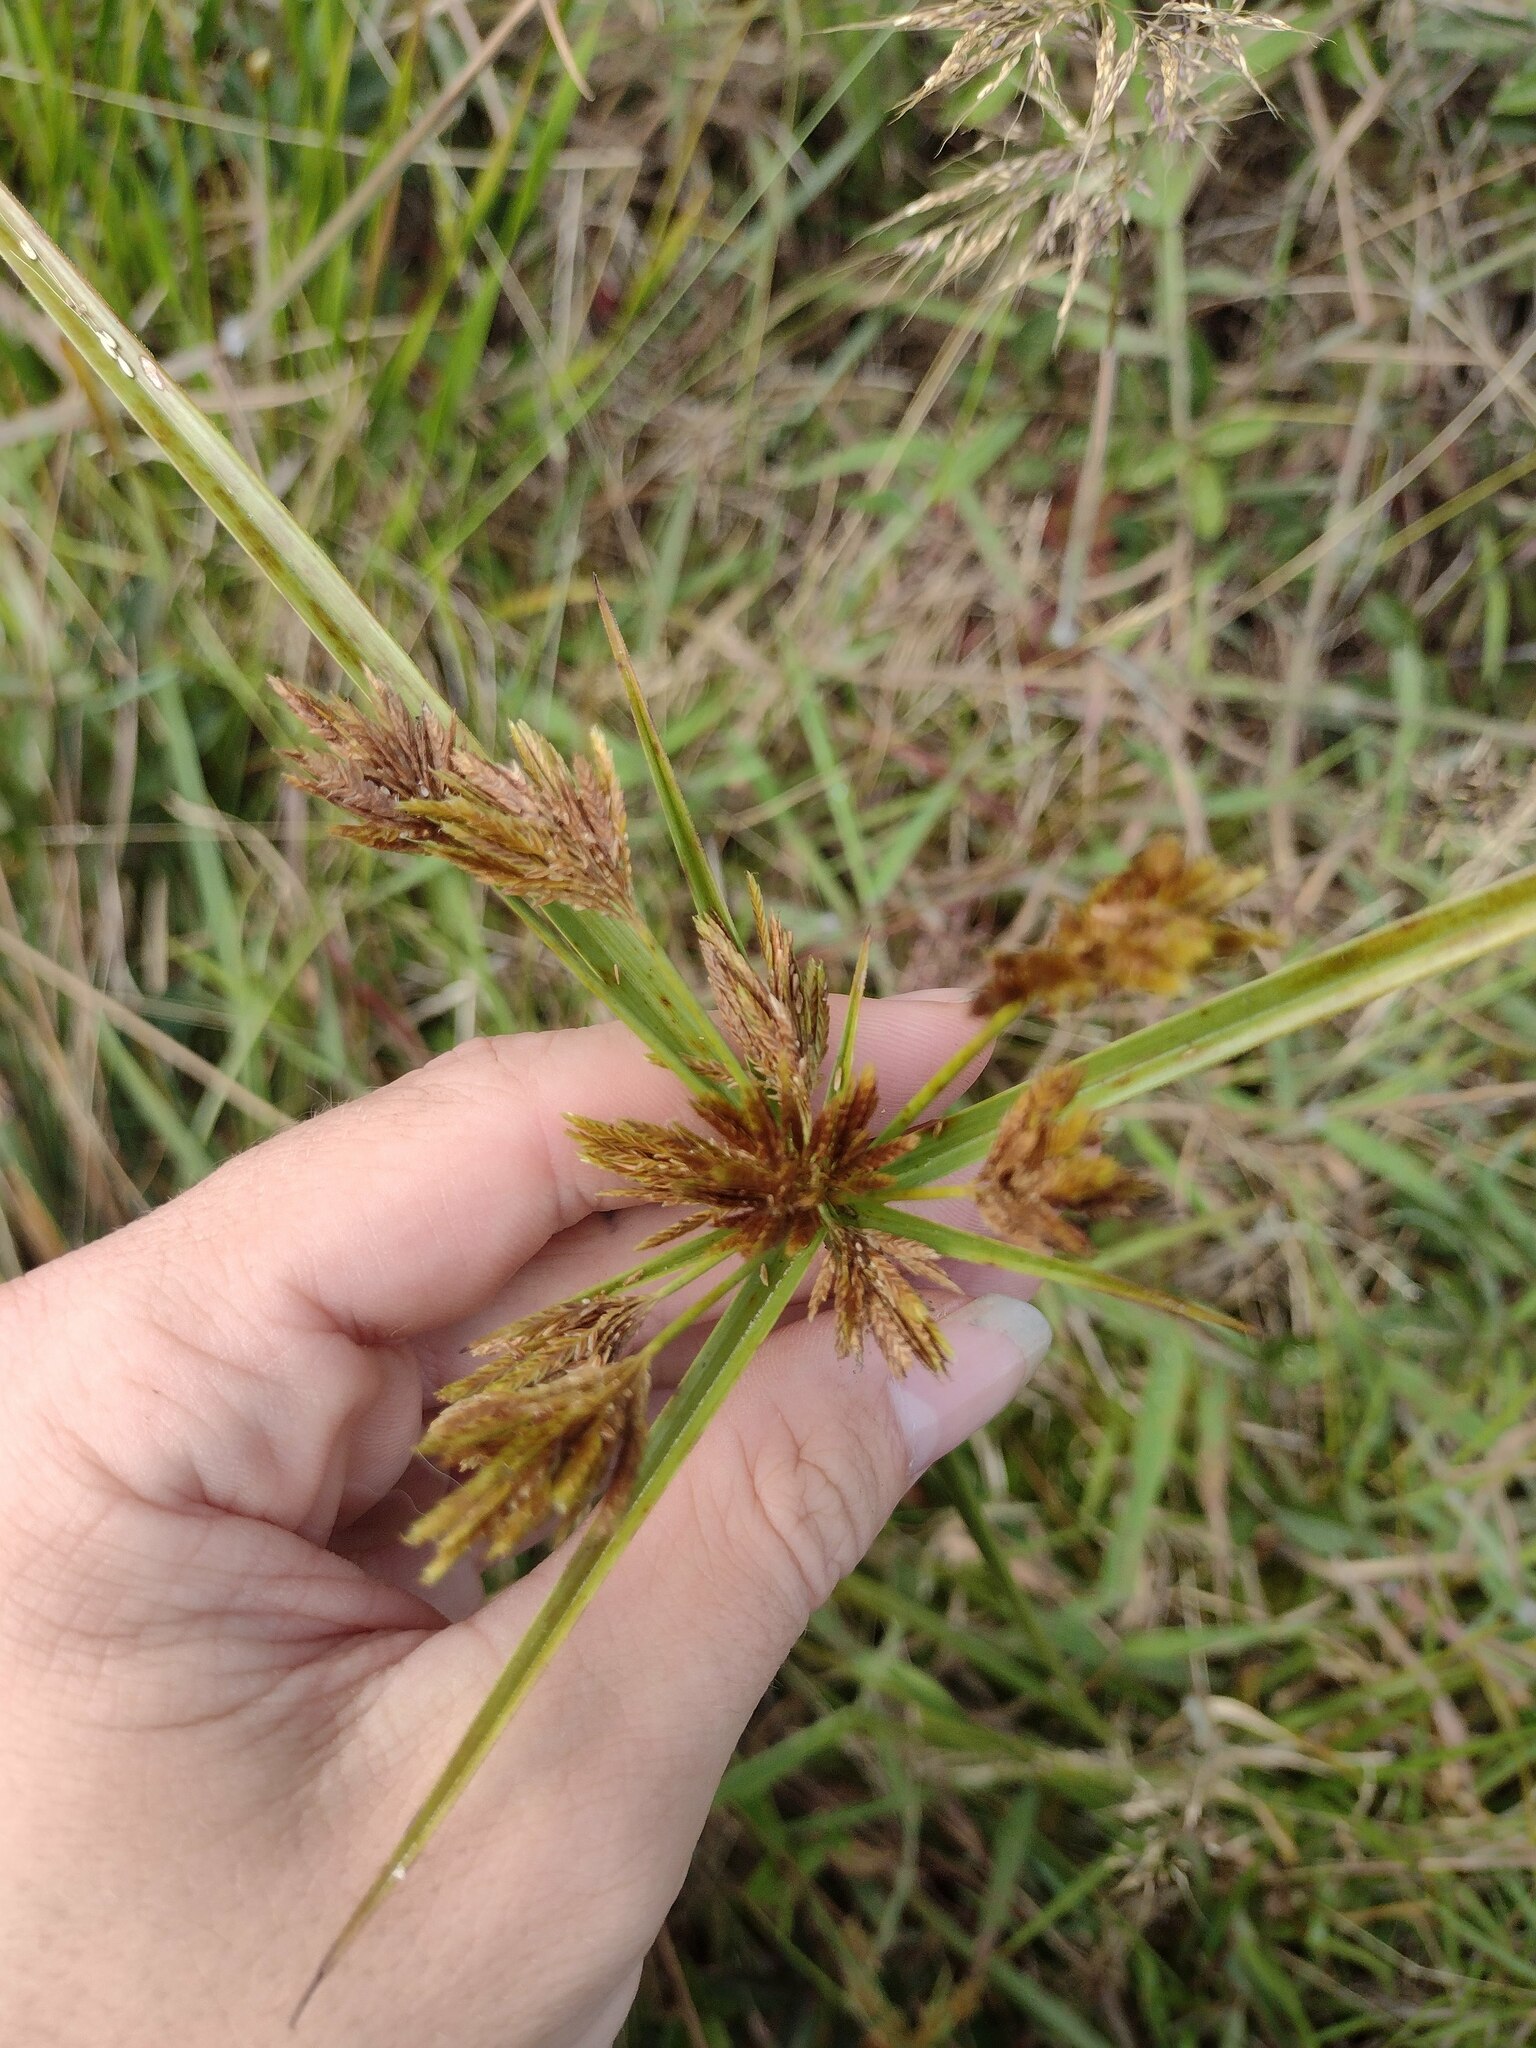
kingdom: Plantae
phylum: Tracheophyta
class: Liliopsida
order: Poales
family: Cyperaceae
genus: Cyperus
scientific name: Cyperus polystachyos
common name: Bunchy flat sedge
